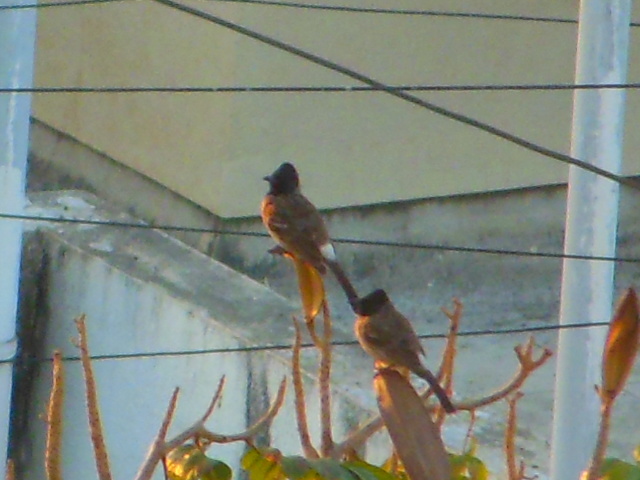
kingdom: Animalia
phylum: Chordata
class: Aves
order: Passeriformes
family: Pycnonotidae
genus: Pycnonotus
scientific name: Pycnonotus cafer
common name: Red-vented bulbul
